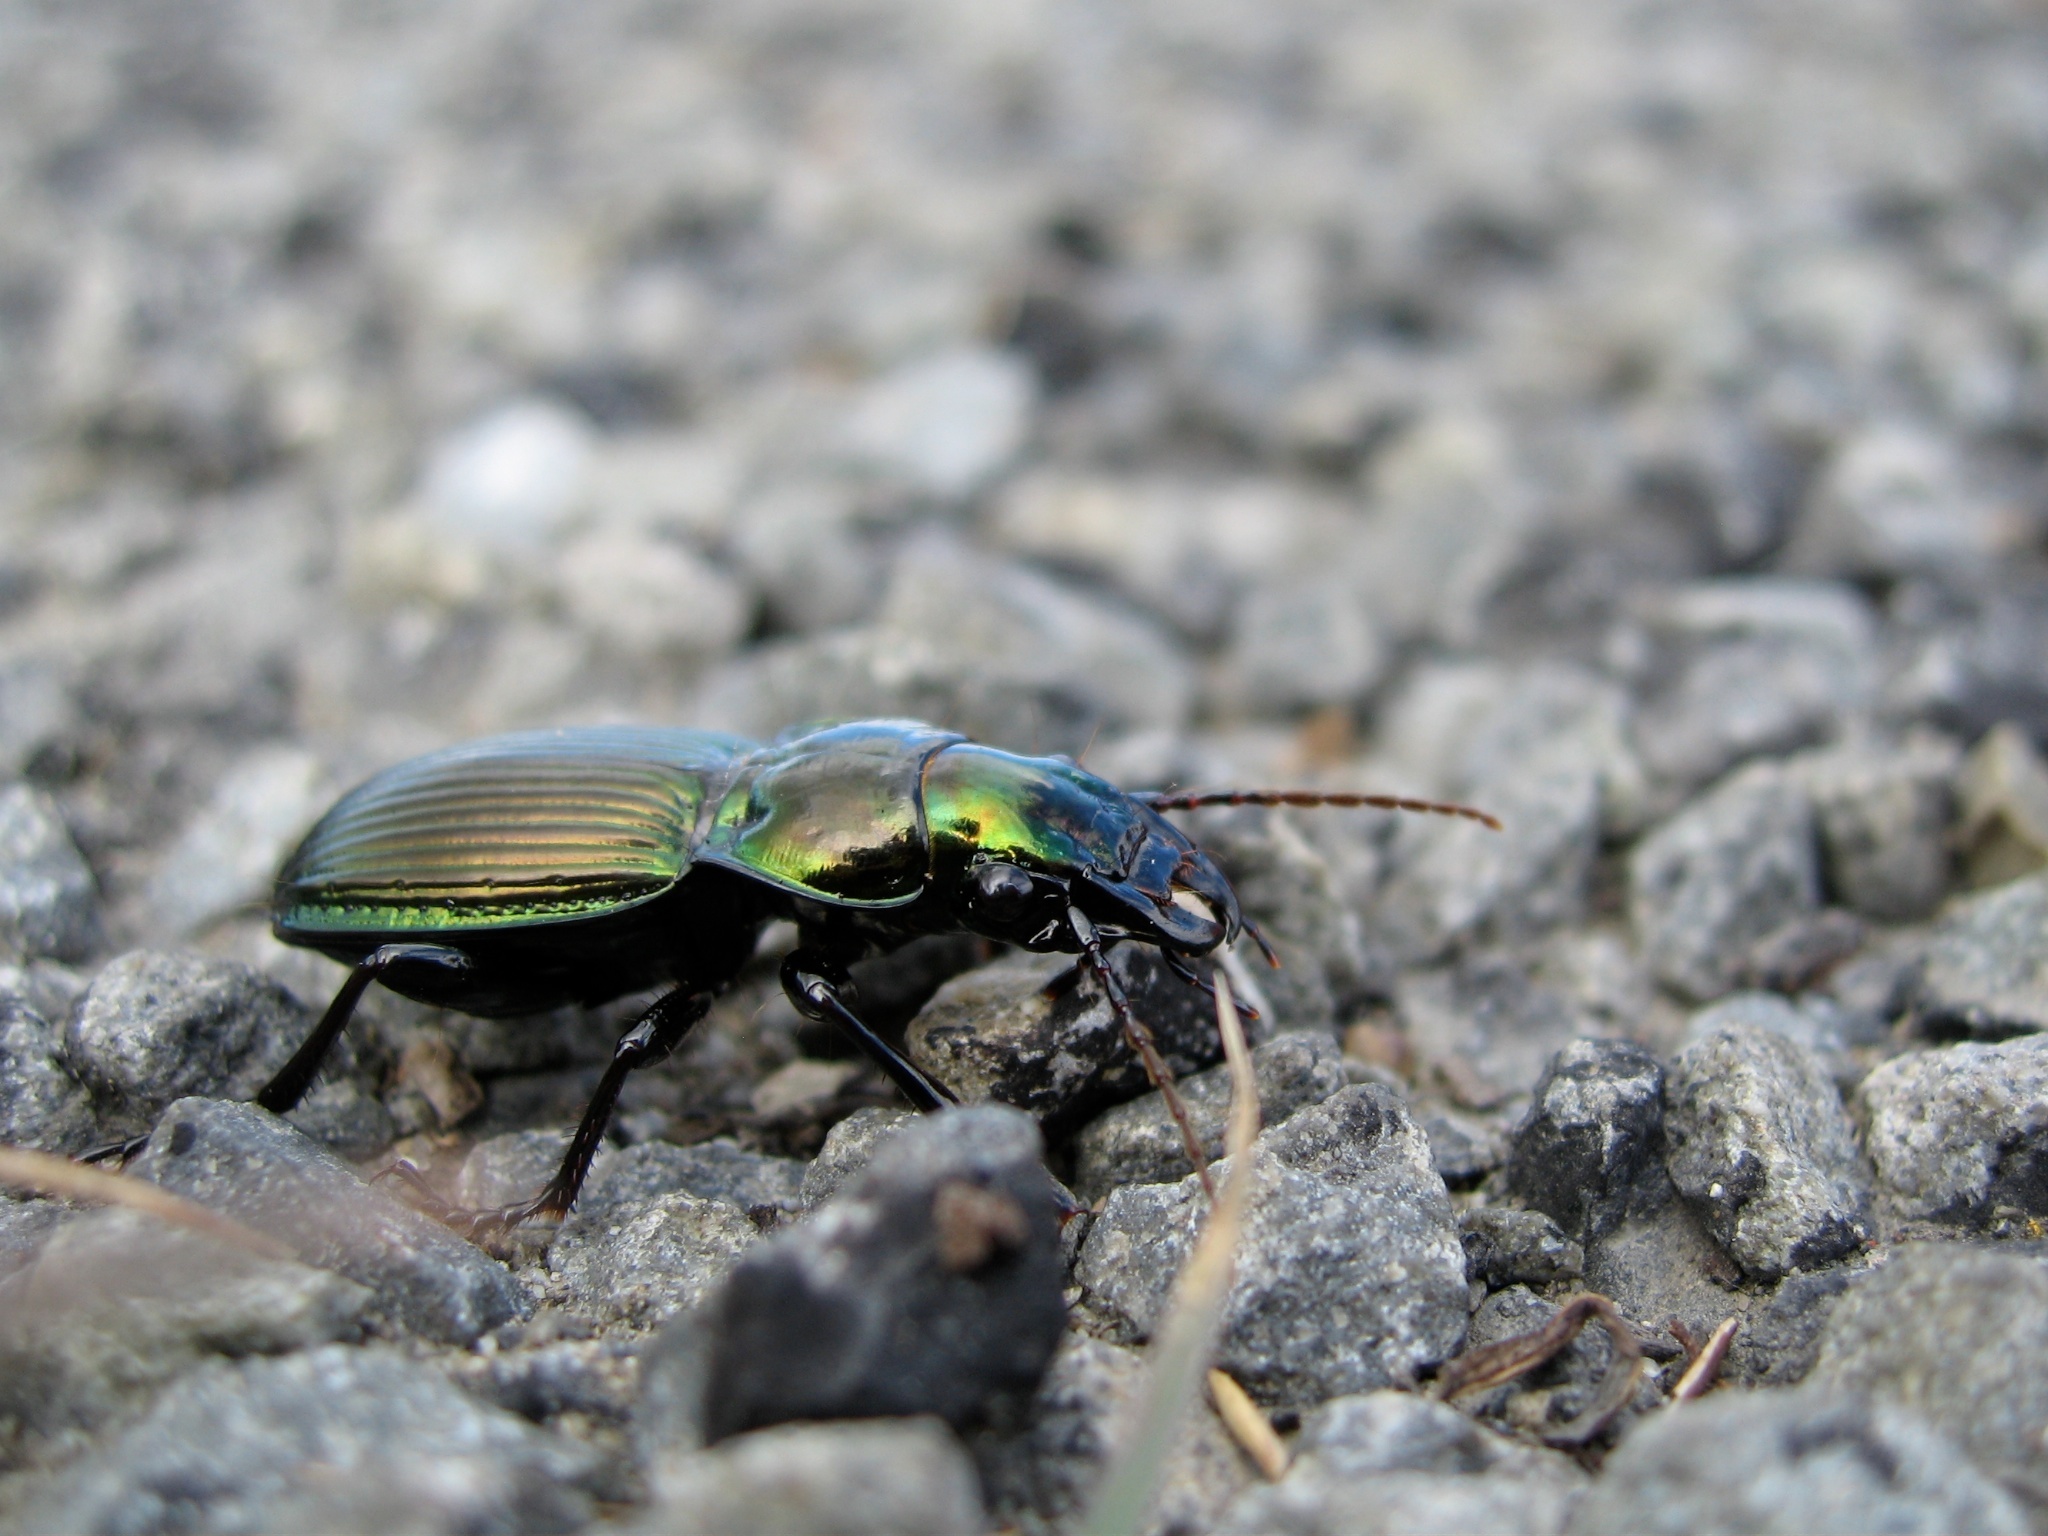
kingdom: Animalia
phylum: Arthropoda
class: Insecta
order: Coleoptera
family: Carabidae
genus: Megadromus
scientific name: Megadromus antarcticus
